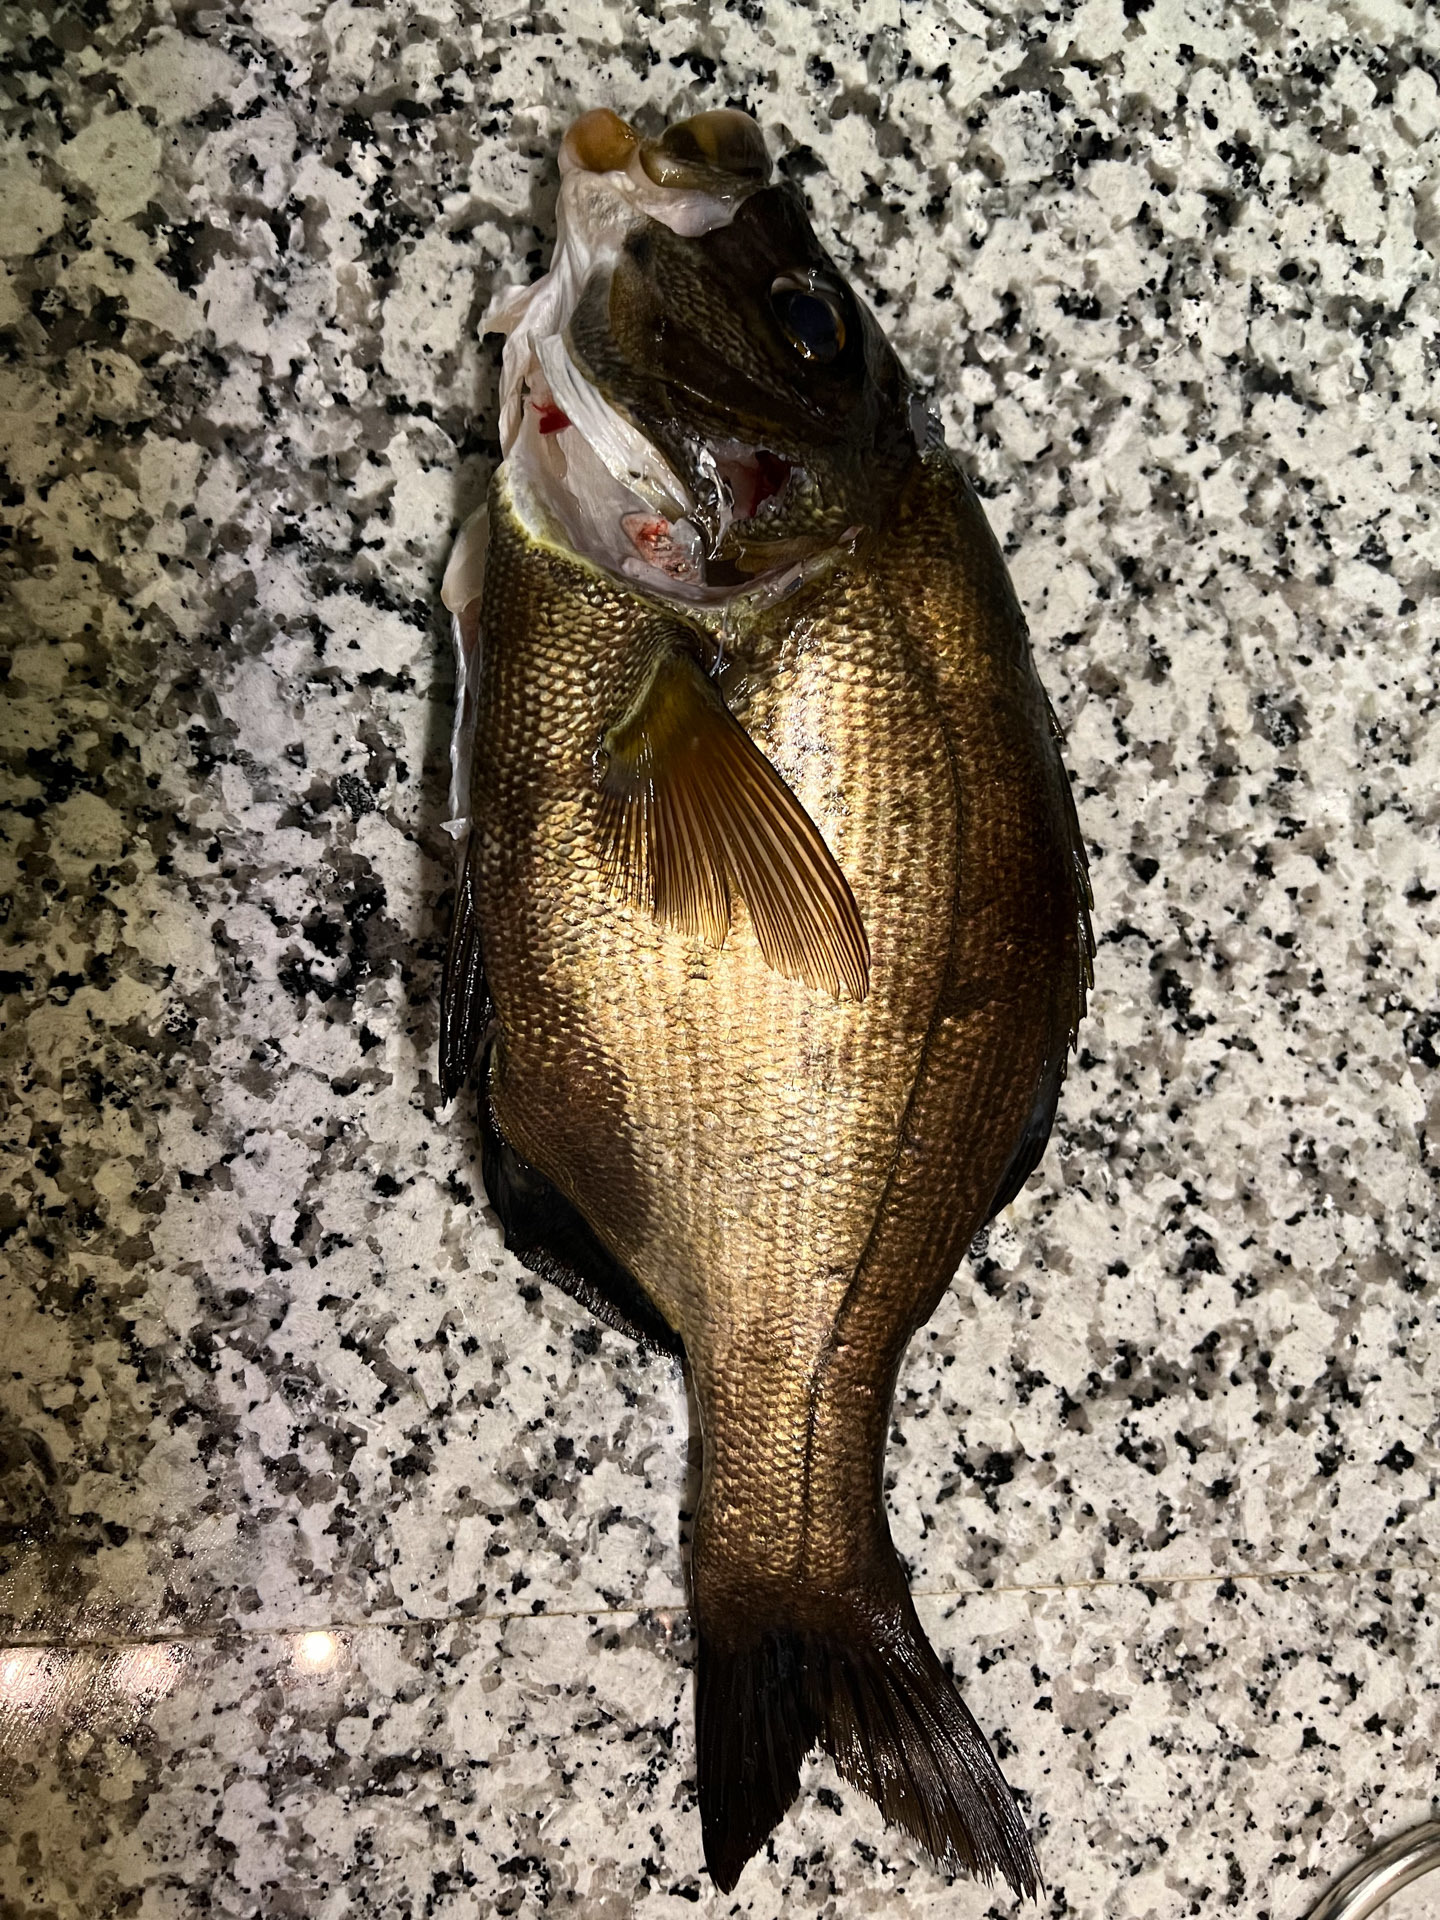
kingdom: Animalia
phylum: Chordata
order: Perciformes
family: Embiotocidae
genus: Rhacochilus
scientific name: Rhacochilus toxotes
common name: Rubberlip seaperch
